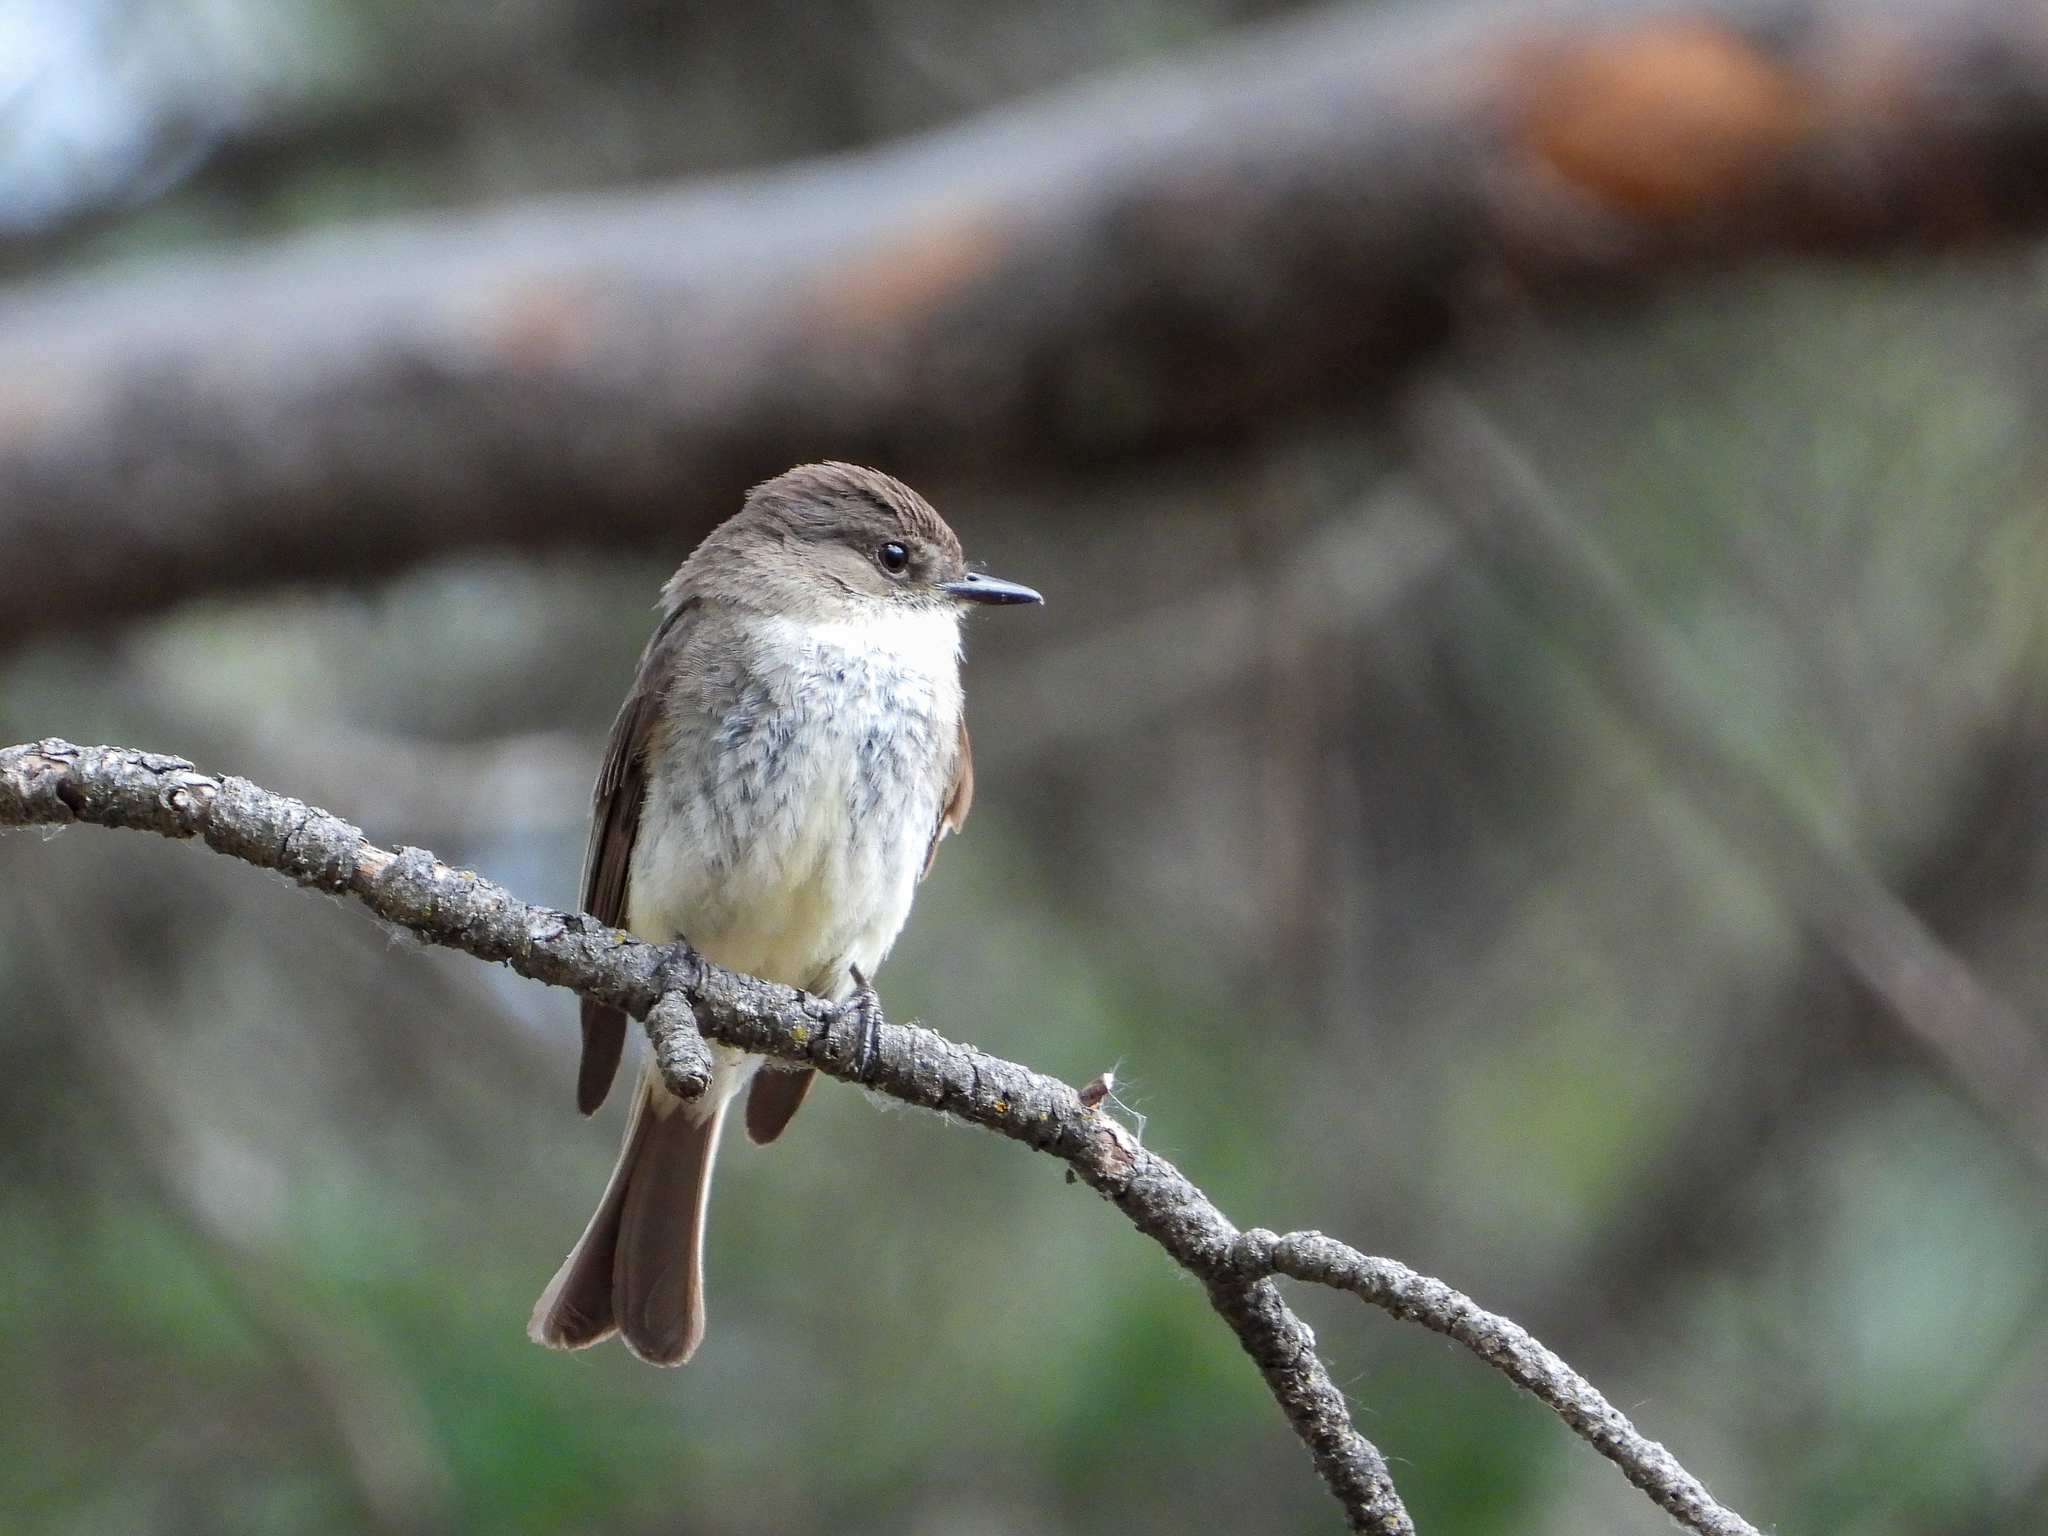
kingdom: Animalia
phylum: Chordata
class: Aves
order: Passeriformes
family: Tyrannidae
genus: Sayornis
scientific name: Sayornis phoebe
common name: Eastern phoebe
